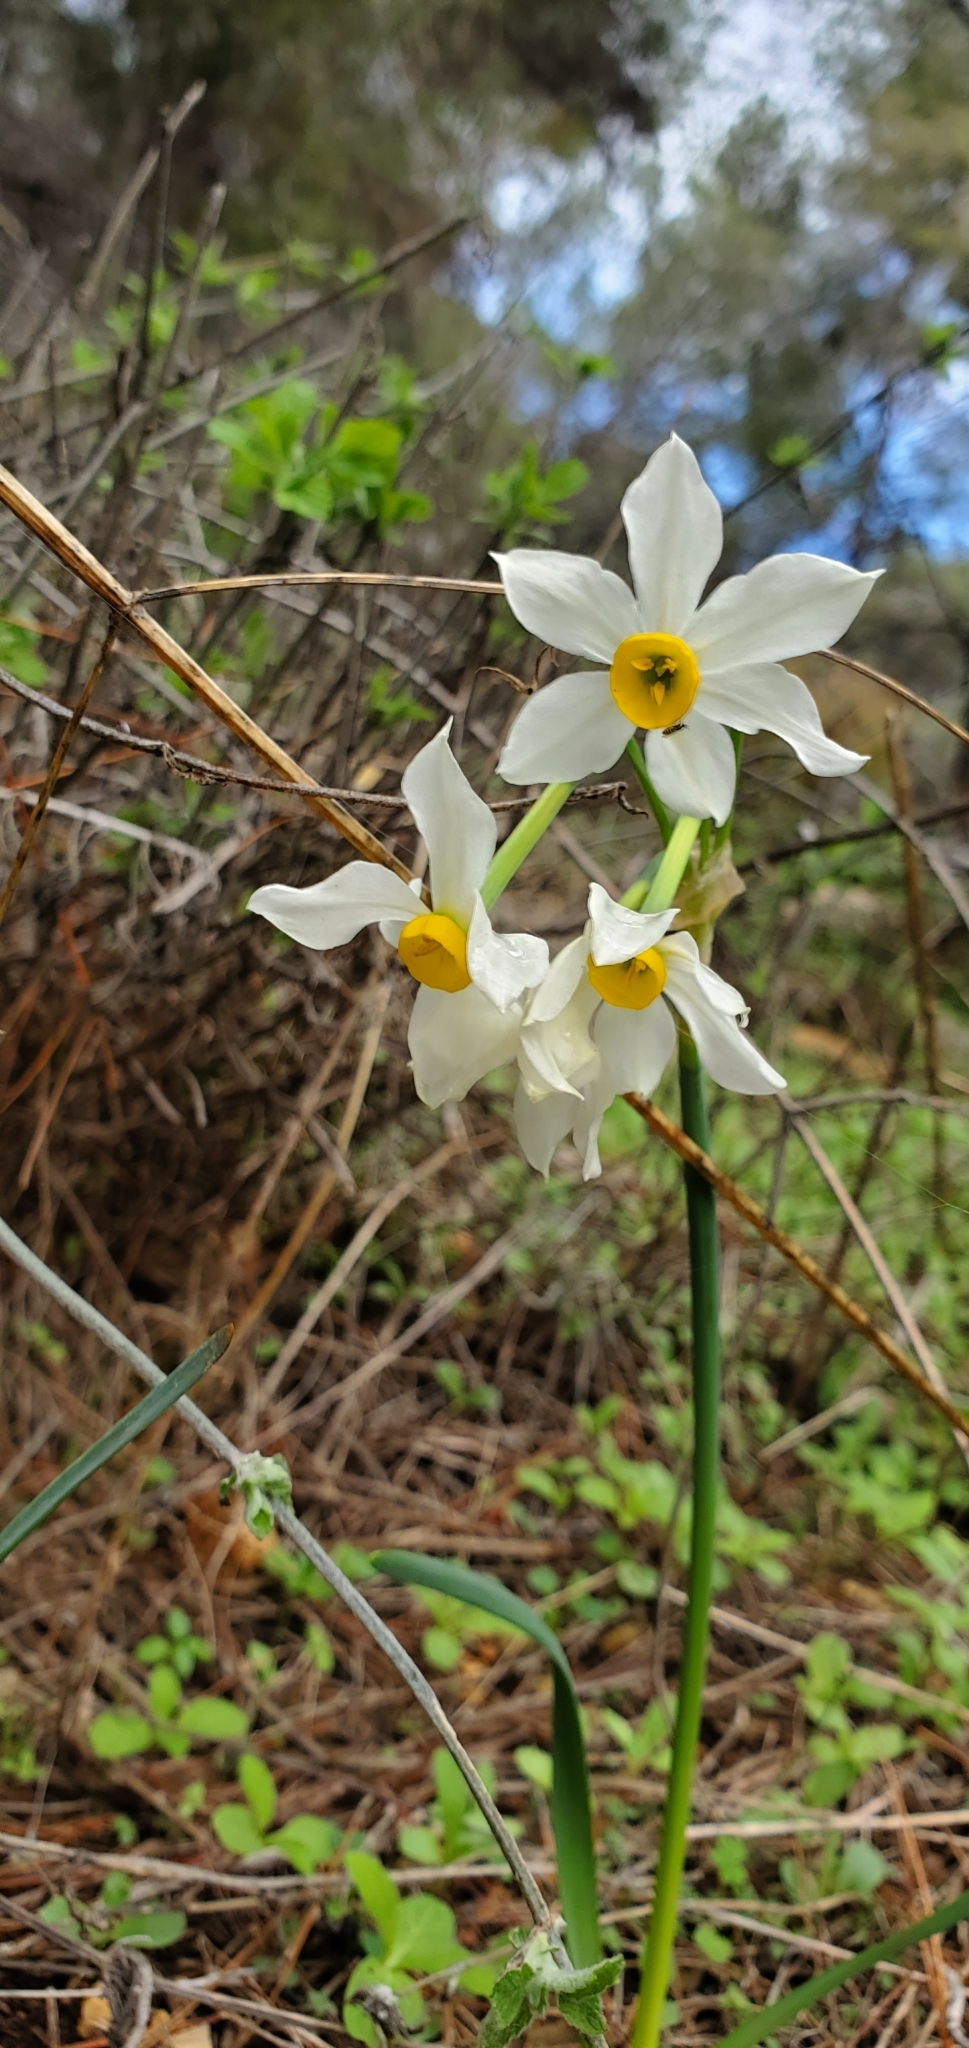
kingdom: Plantae
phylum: Tracheophyta
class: Liliopsida
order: Asparagales
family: Amaryllidaceae
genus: Narcissus
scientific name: Narcissus tazetta
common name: Bunch-flowered daffodil
